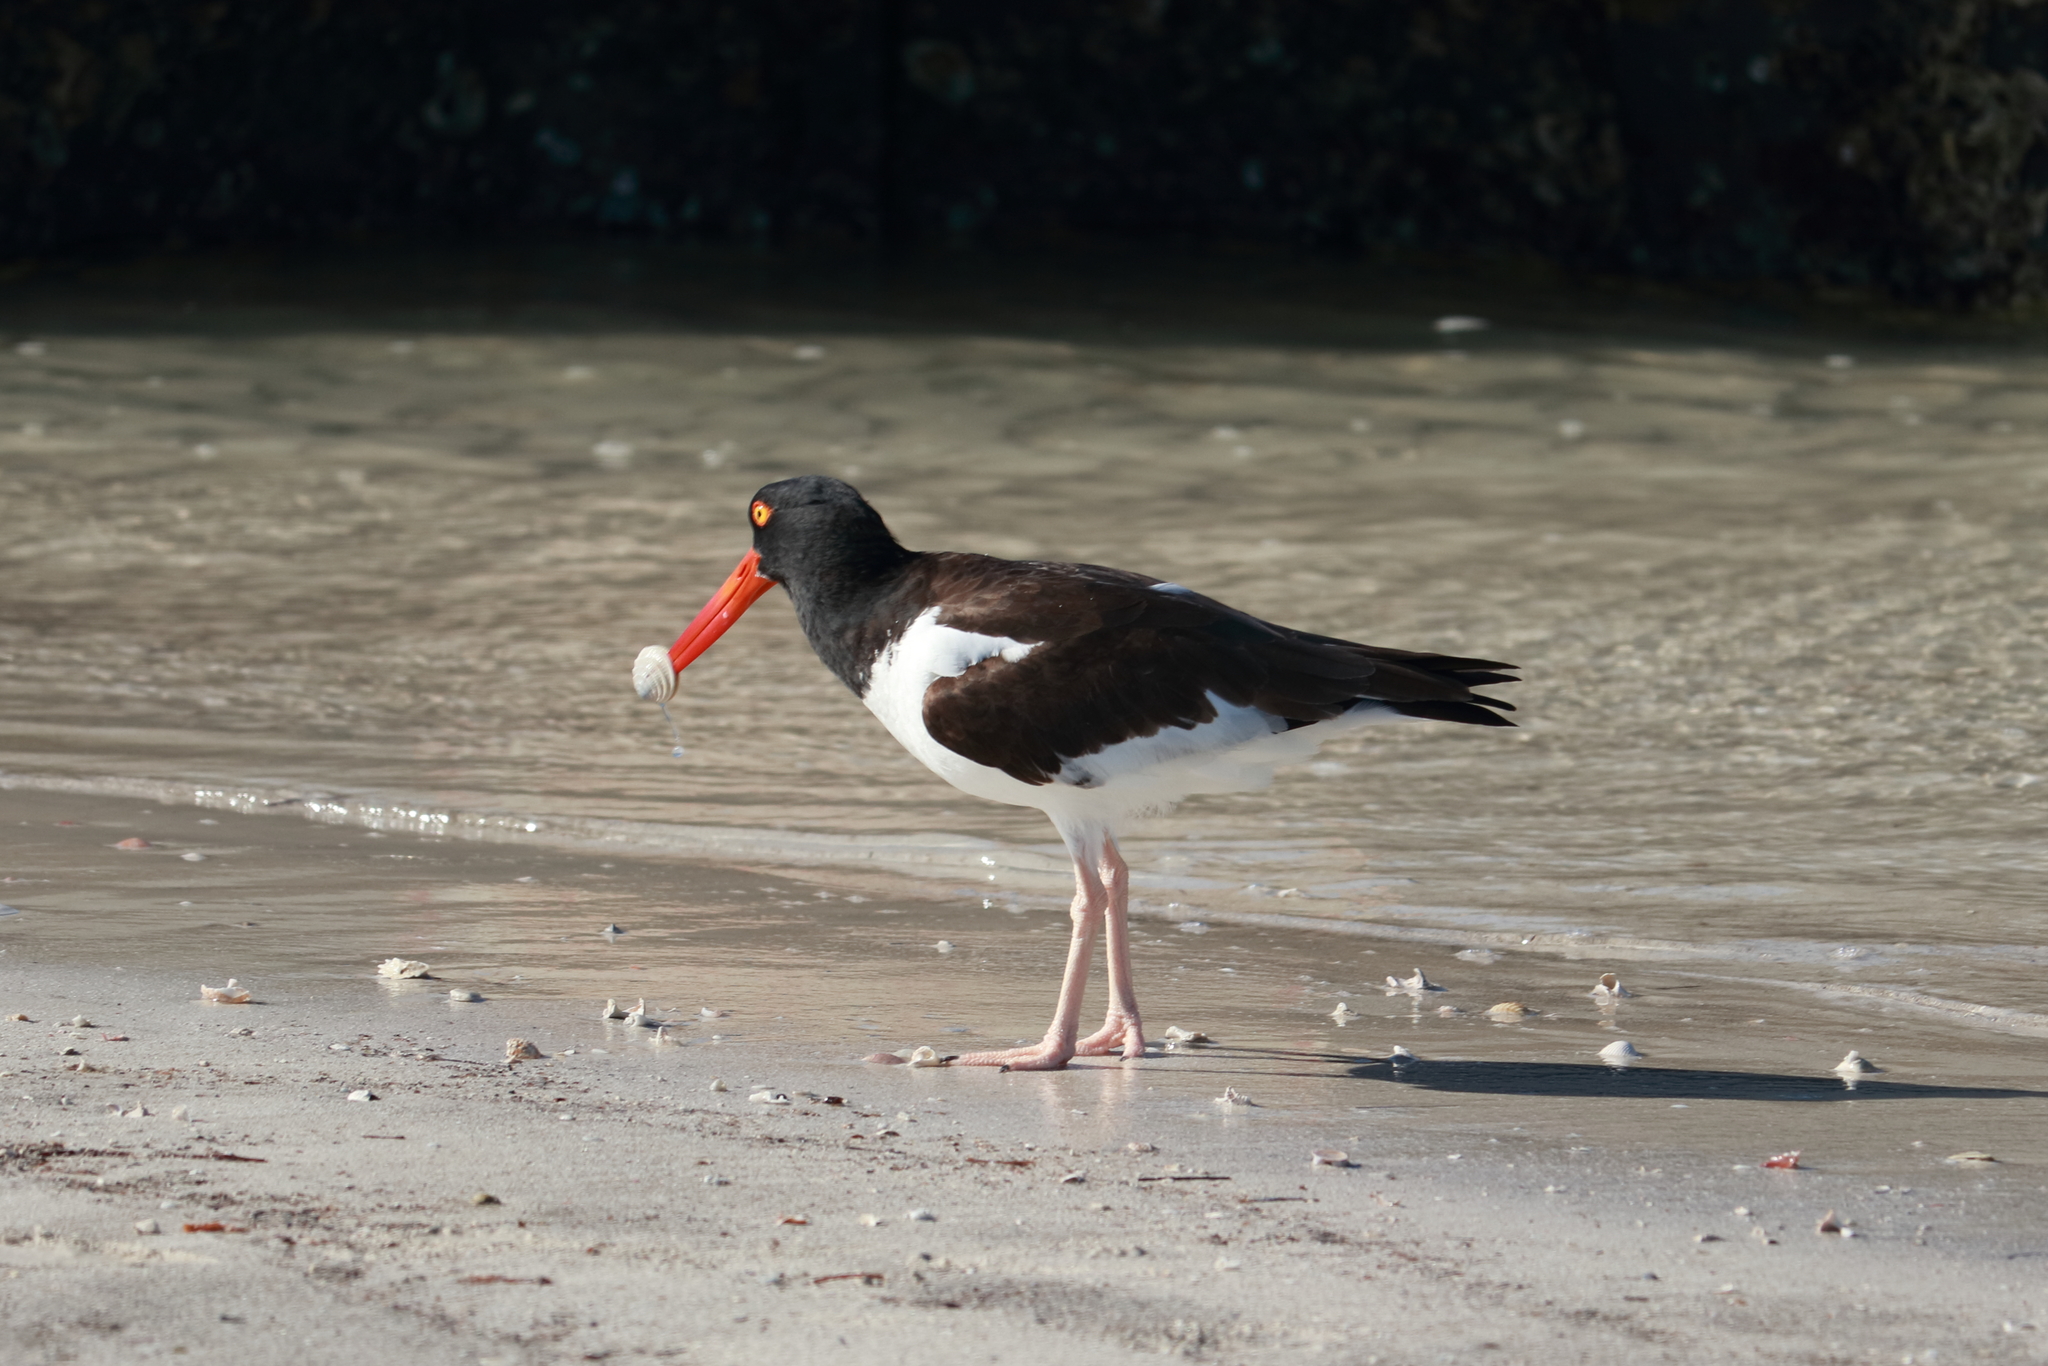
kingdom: Animalia
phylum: Chordata
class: Aves
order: Charadriiformes
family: Haematopodidae
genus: Haematopus
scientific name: Haematopus palliatus
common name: American oystercatcher
